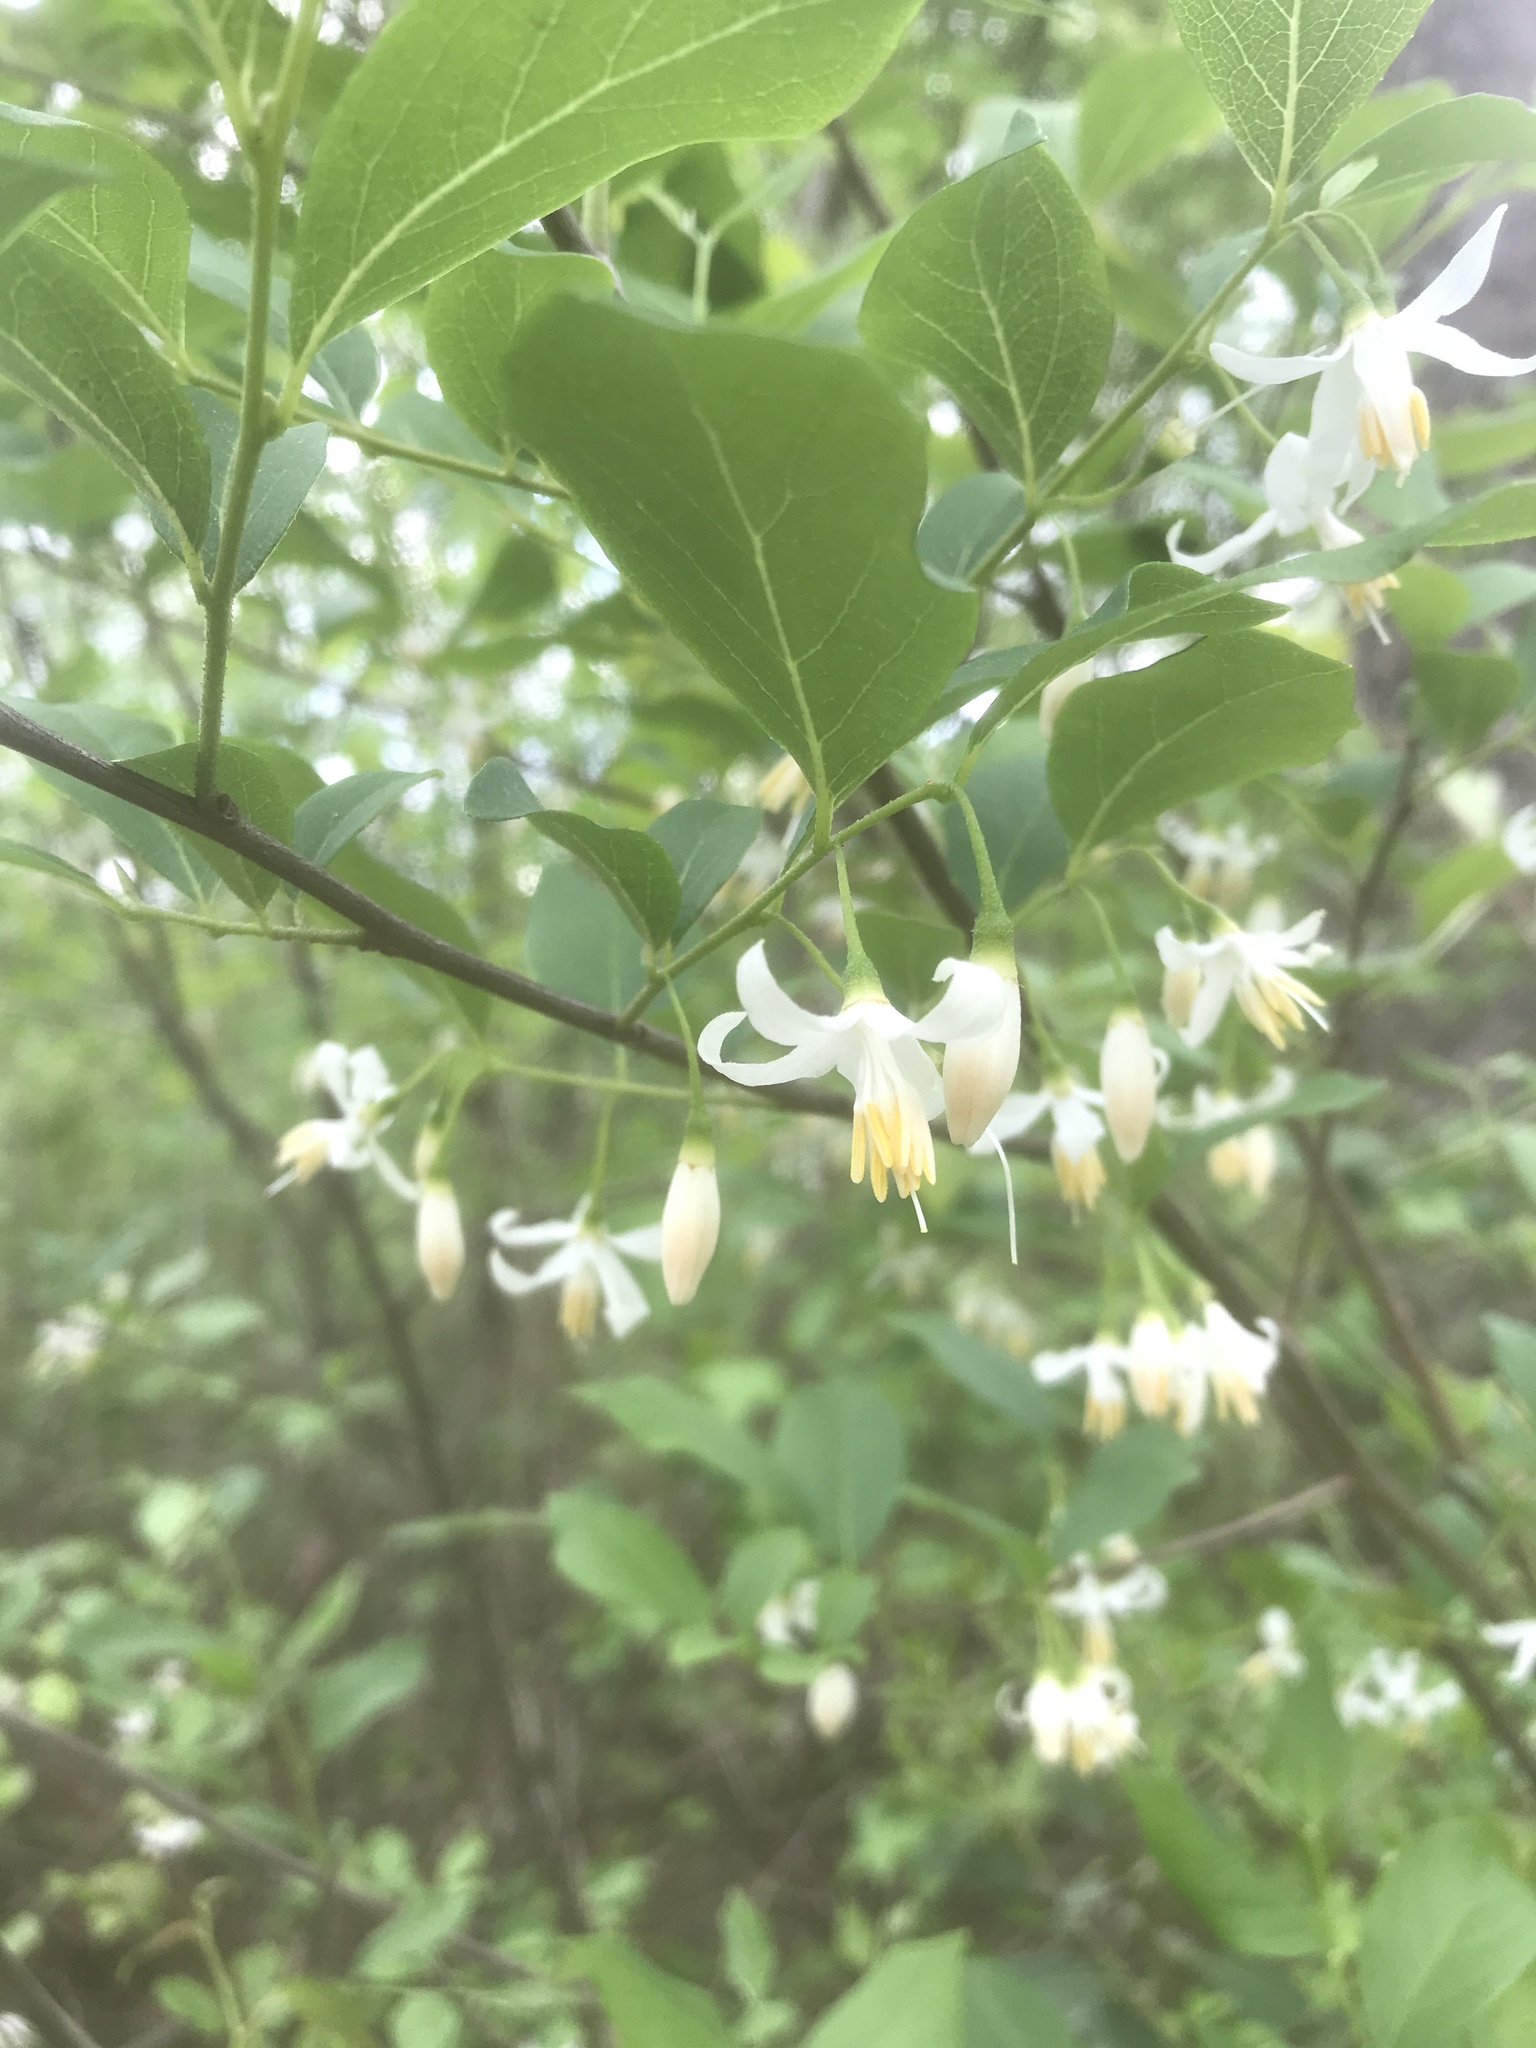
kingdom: Plantae
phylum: Tracheophyta
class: Magnoliopsida
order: Ericales
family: Styracaceae
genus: Styrax
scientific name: Styrax americanus
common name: American snowbell
